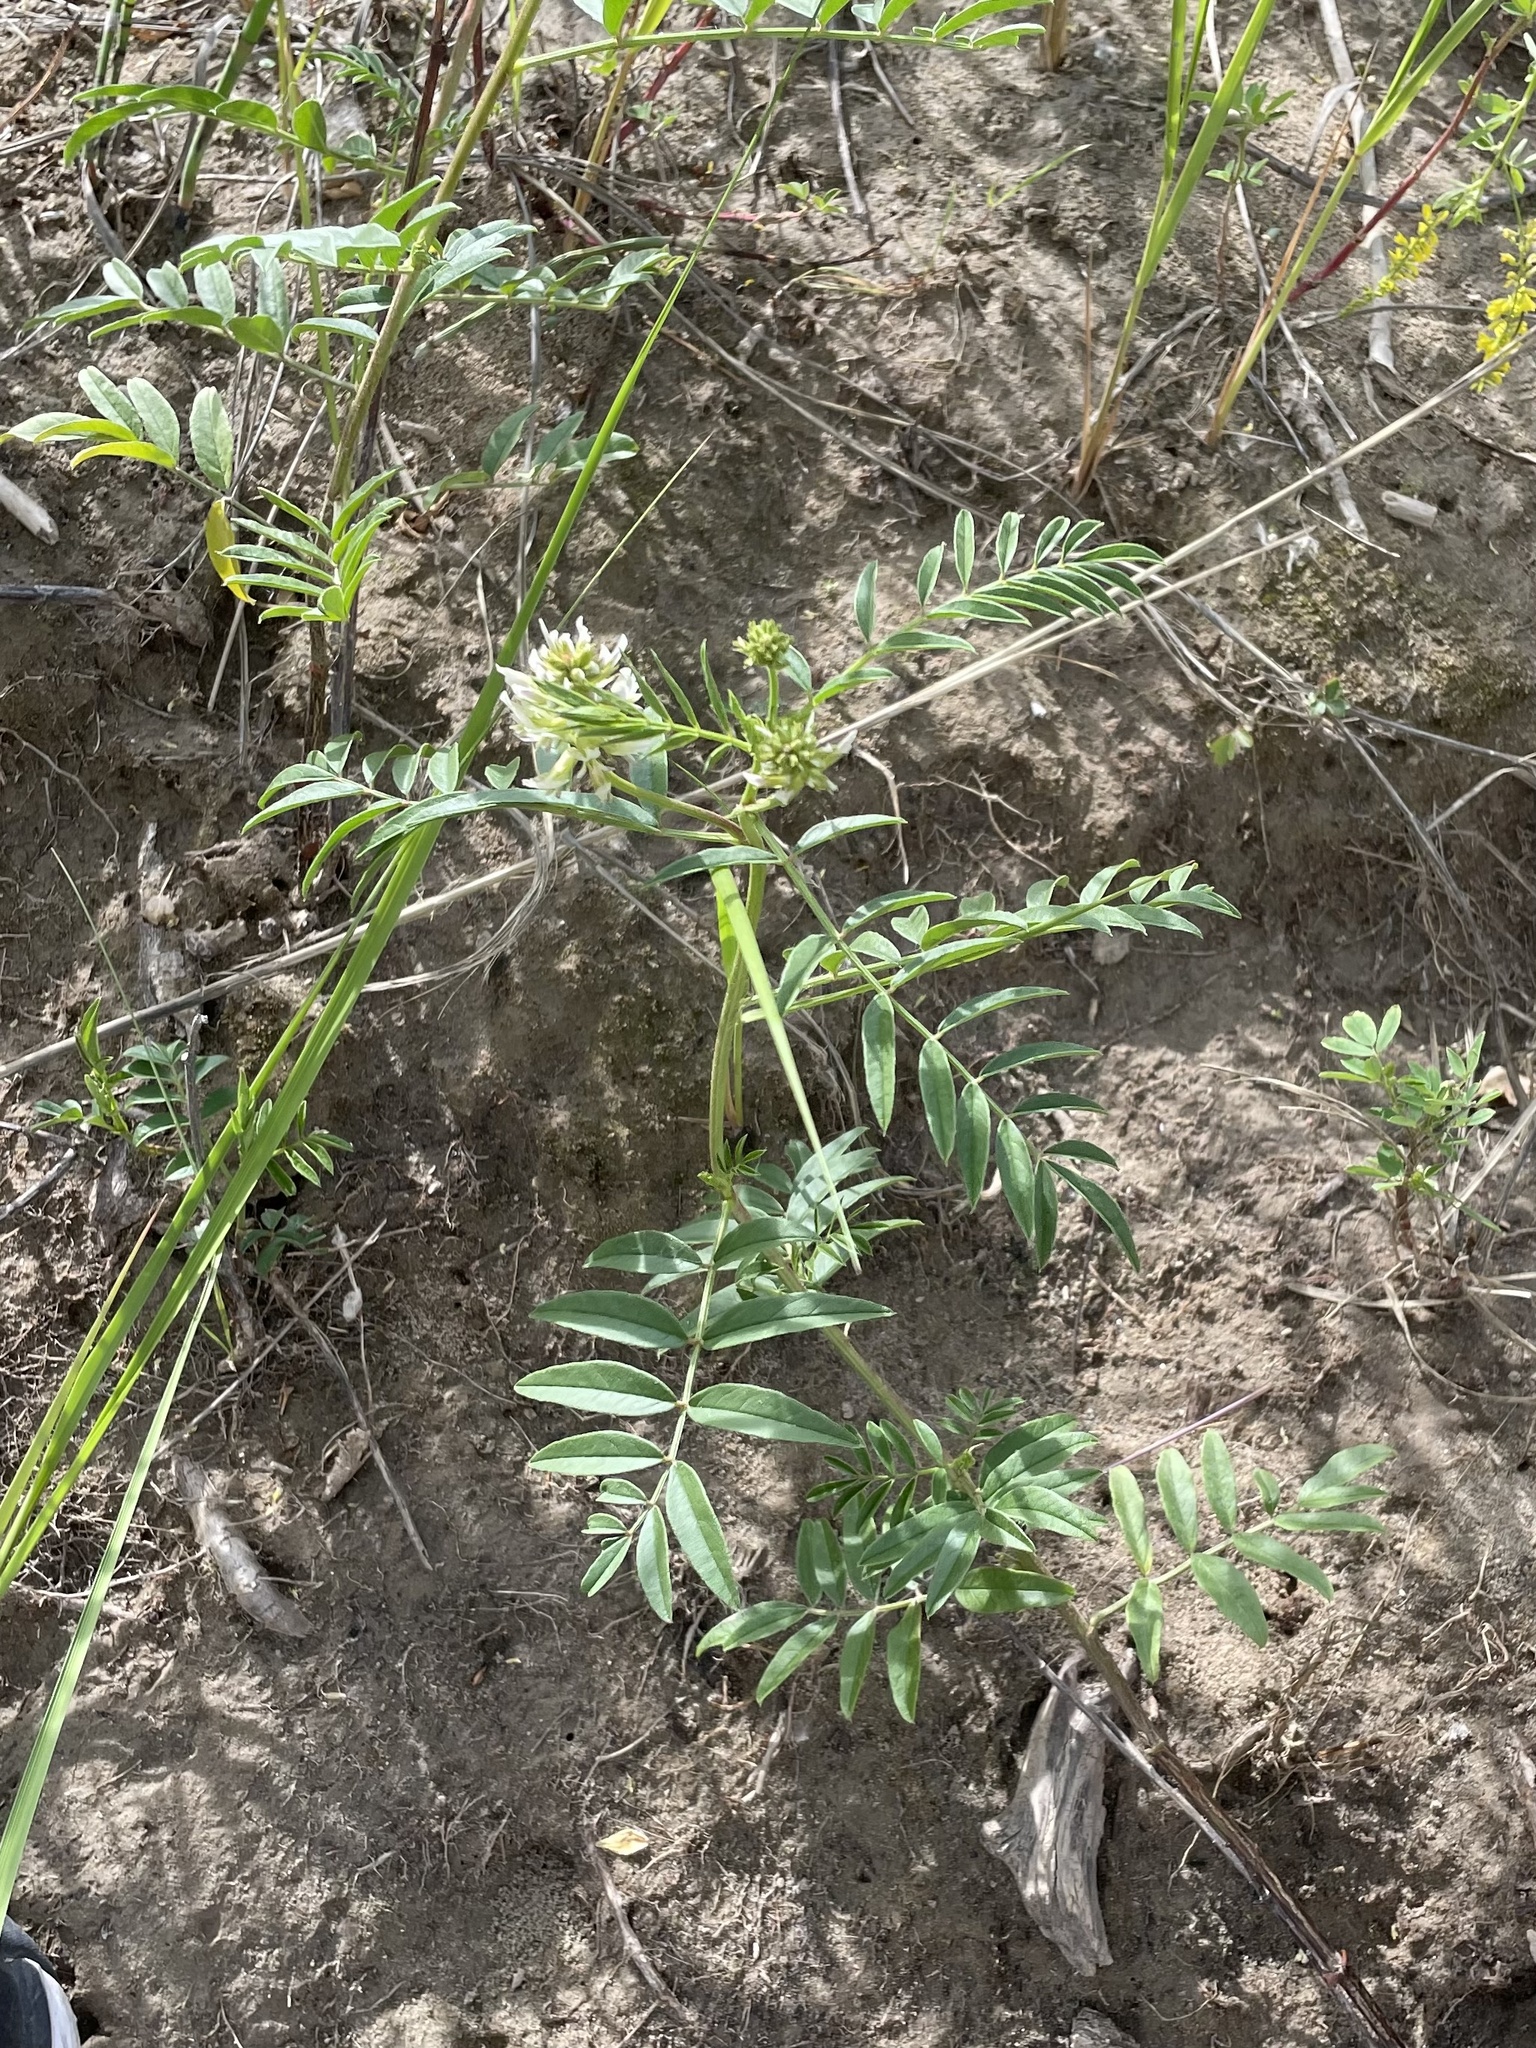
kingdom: Plantae
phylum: Tracheophyta
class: Magnoliopsida
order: Fabales
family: Fabaceae
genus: Glycyrrhiza
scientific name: Glycyrrhiza lepidota
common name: American liquorice
